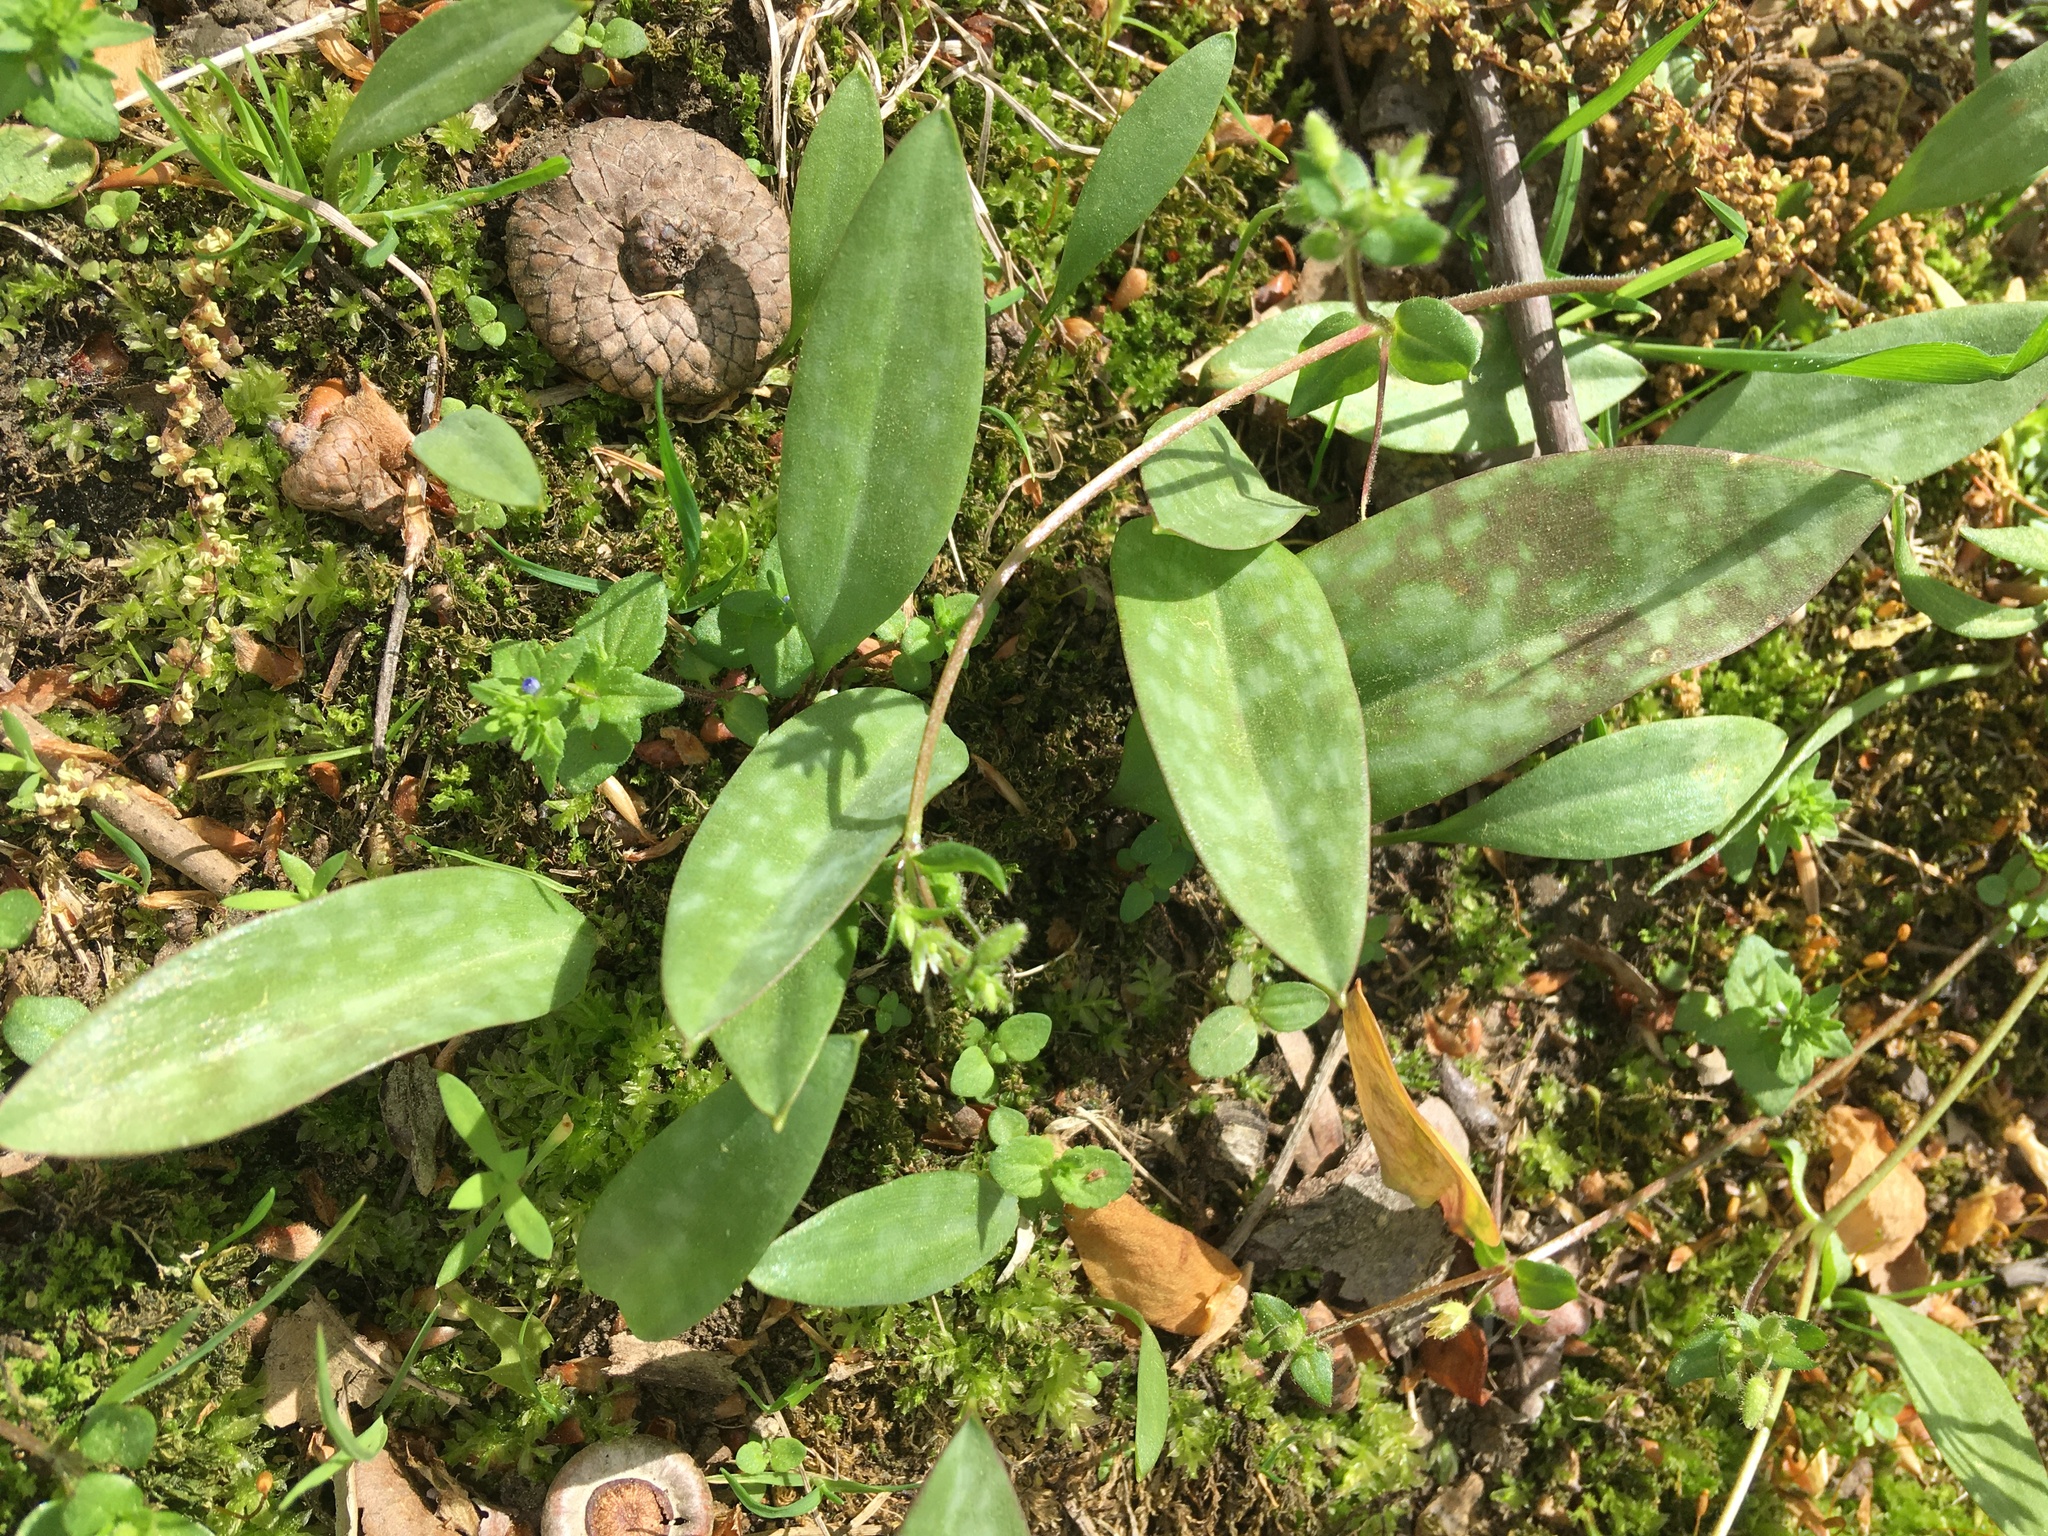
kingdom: Plantae
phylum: Tracheophyta
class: Liliopsida
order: Liliales
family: Liliaceae
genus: Erythronium
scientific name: Erythronium americanum
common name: Yellow adder's-tongue
